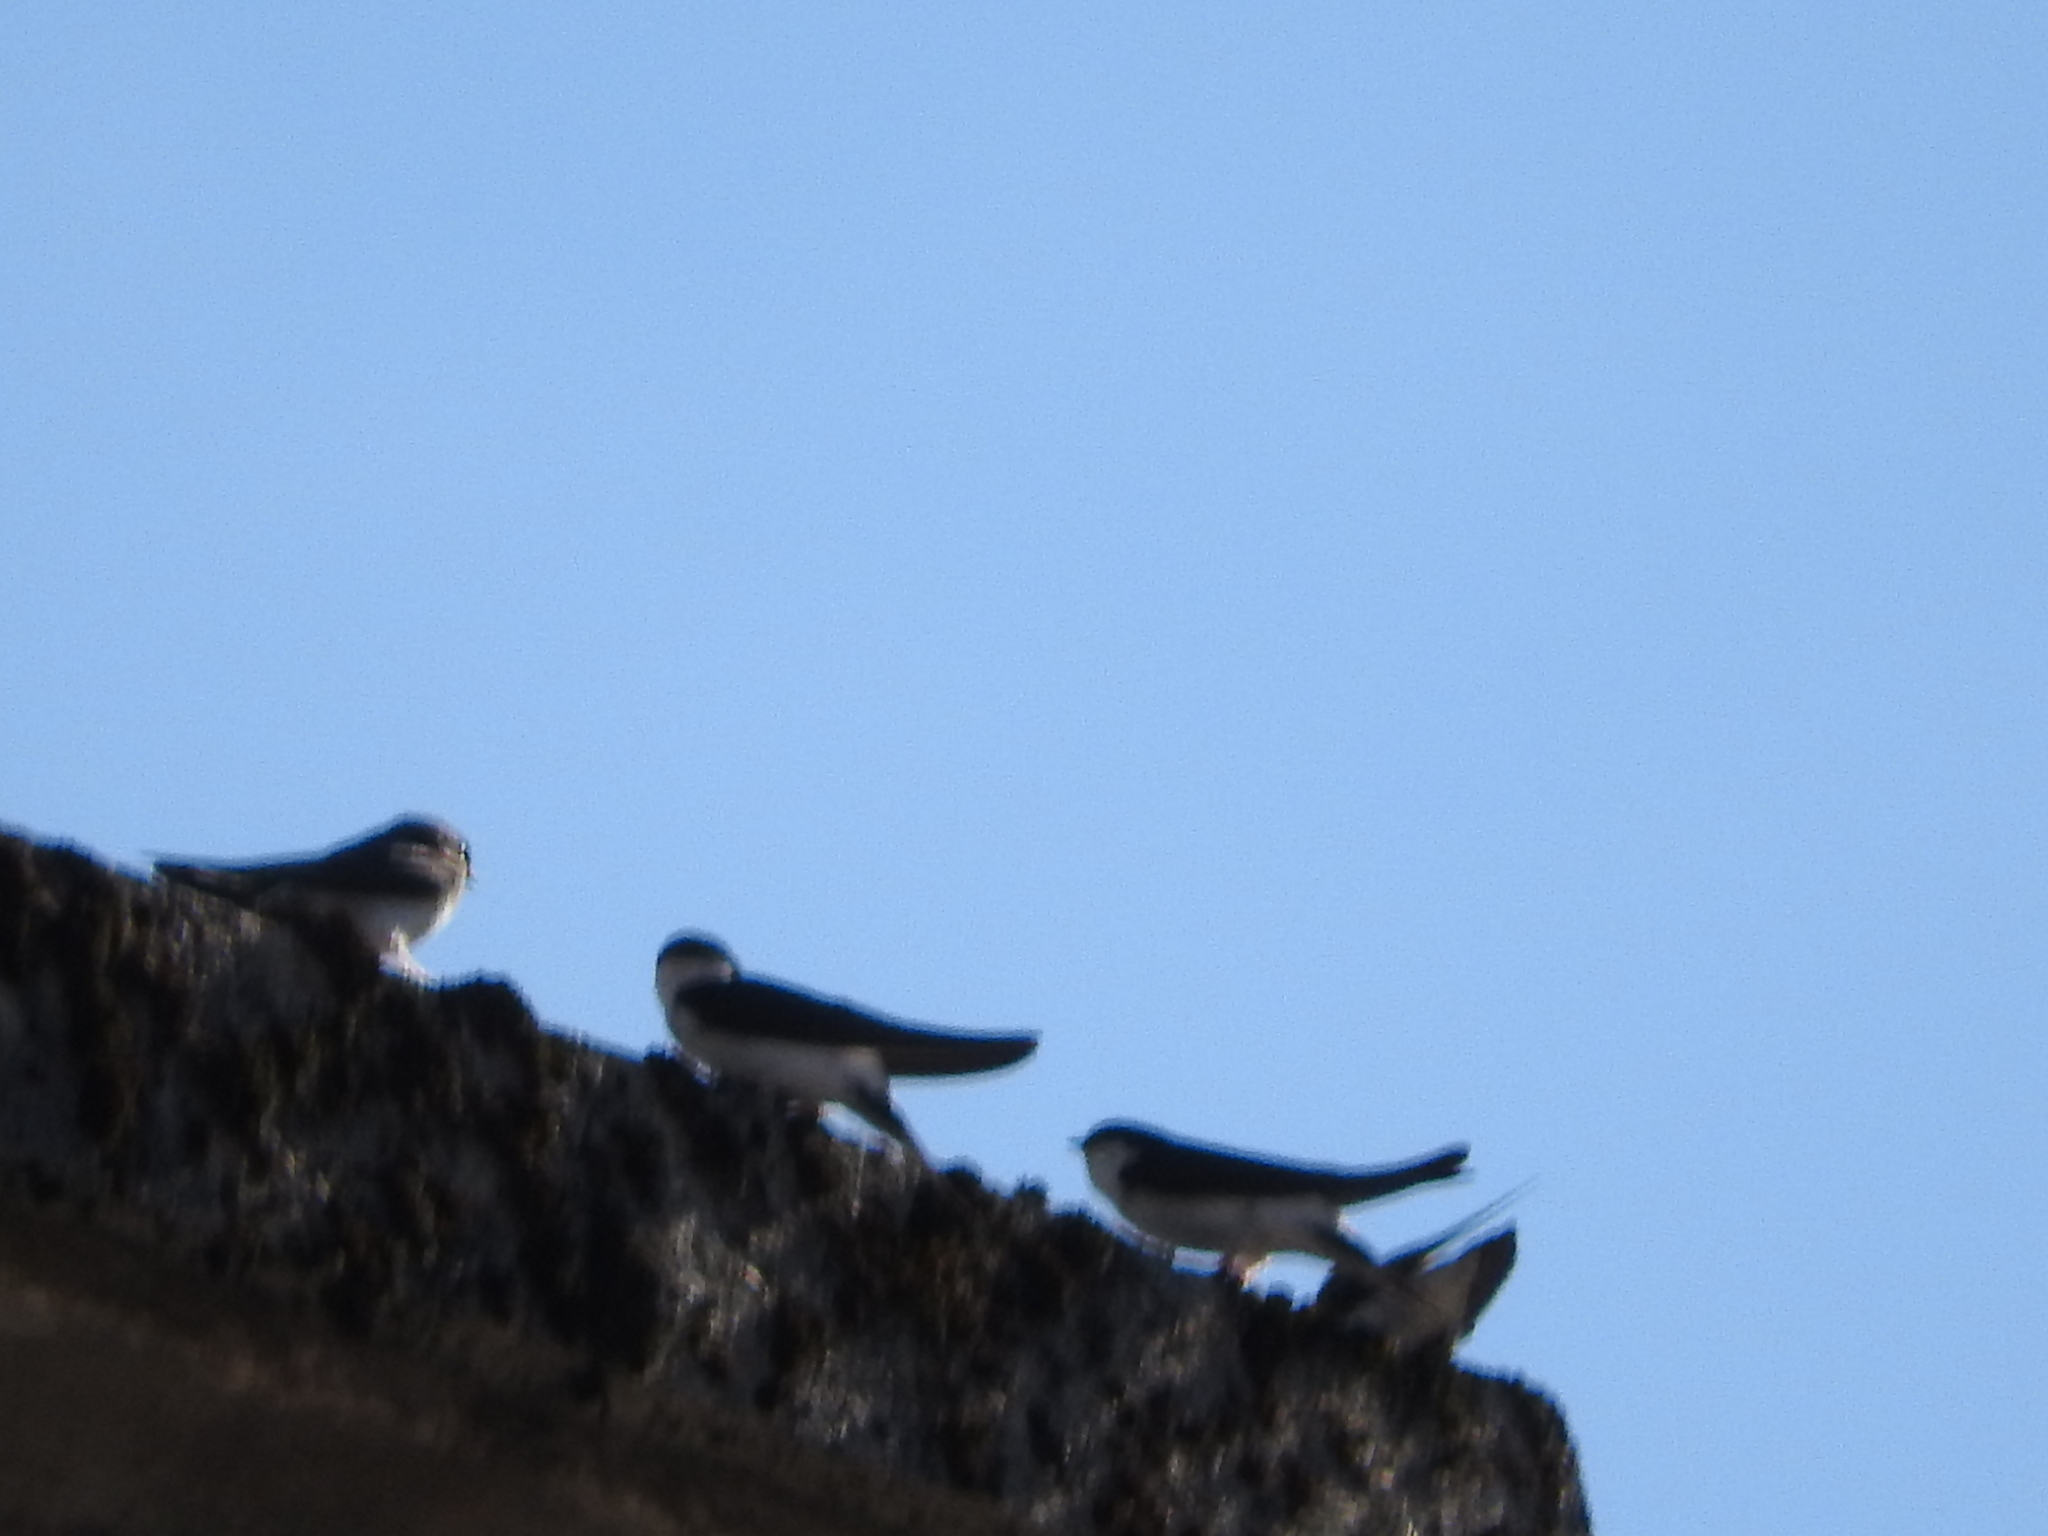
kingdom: Animalia
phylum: Chordata
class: Aves
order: Passeriformes
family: Hirundinidae
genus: Delichon
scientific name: Delichon urbicum
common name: Common house martin
